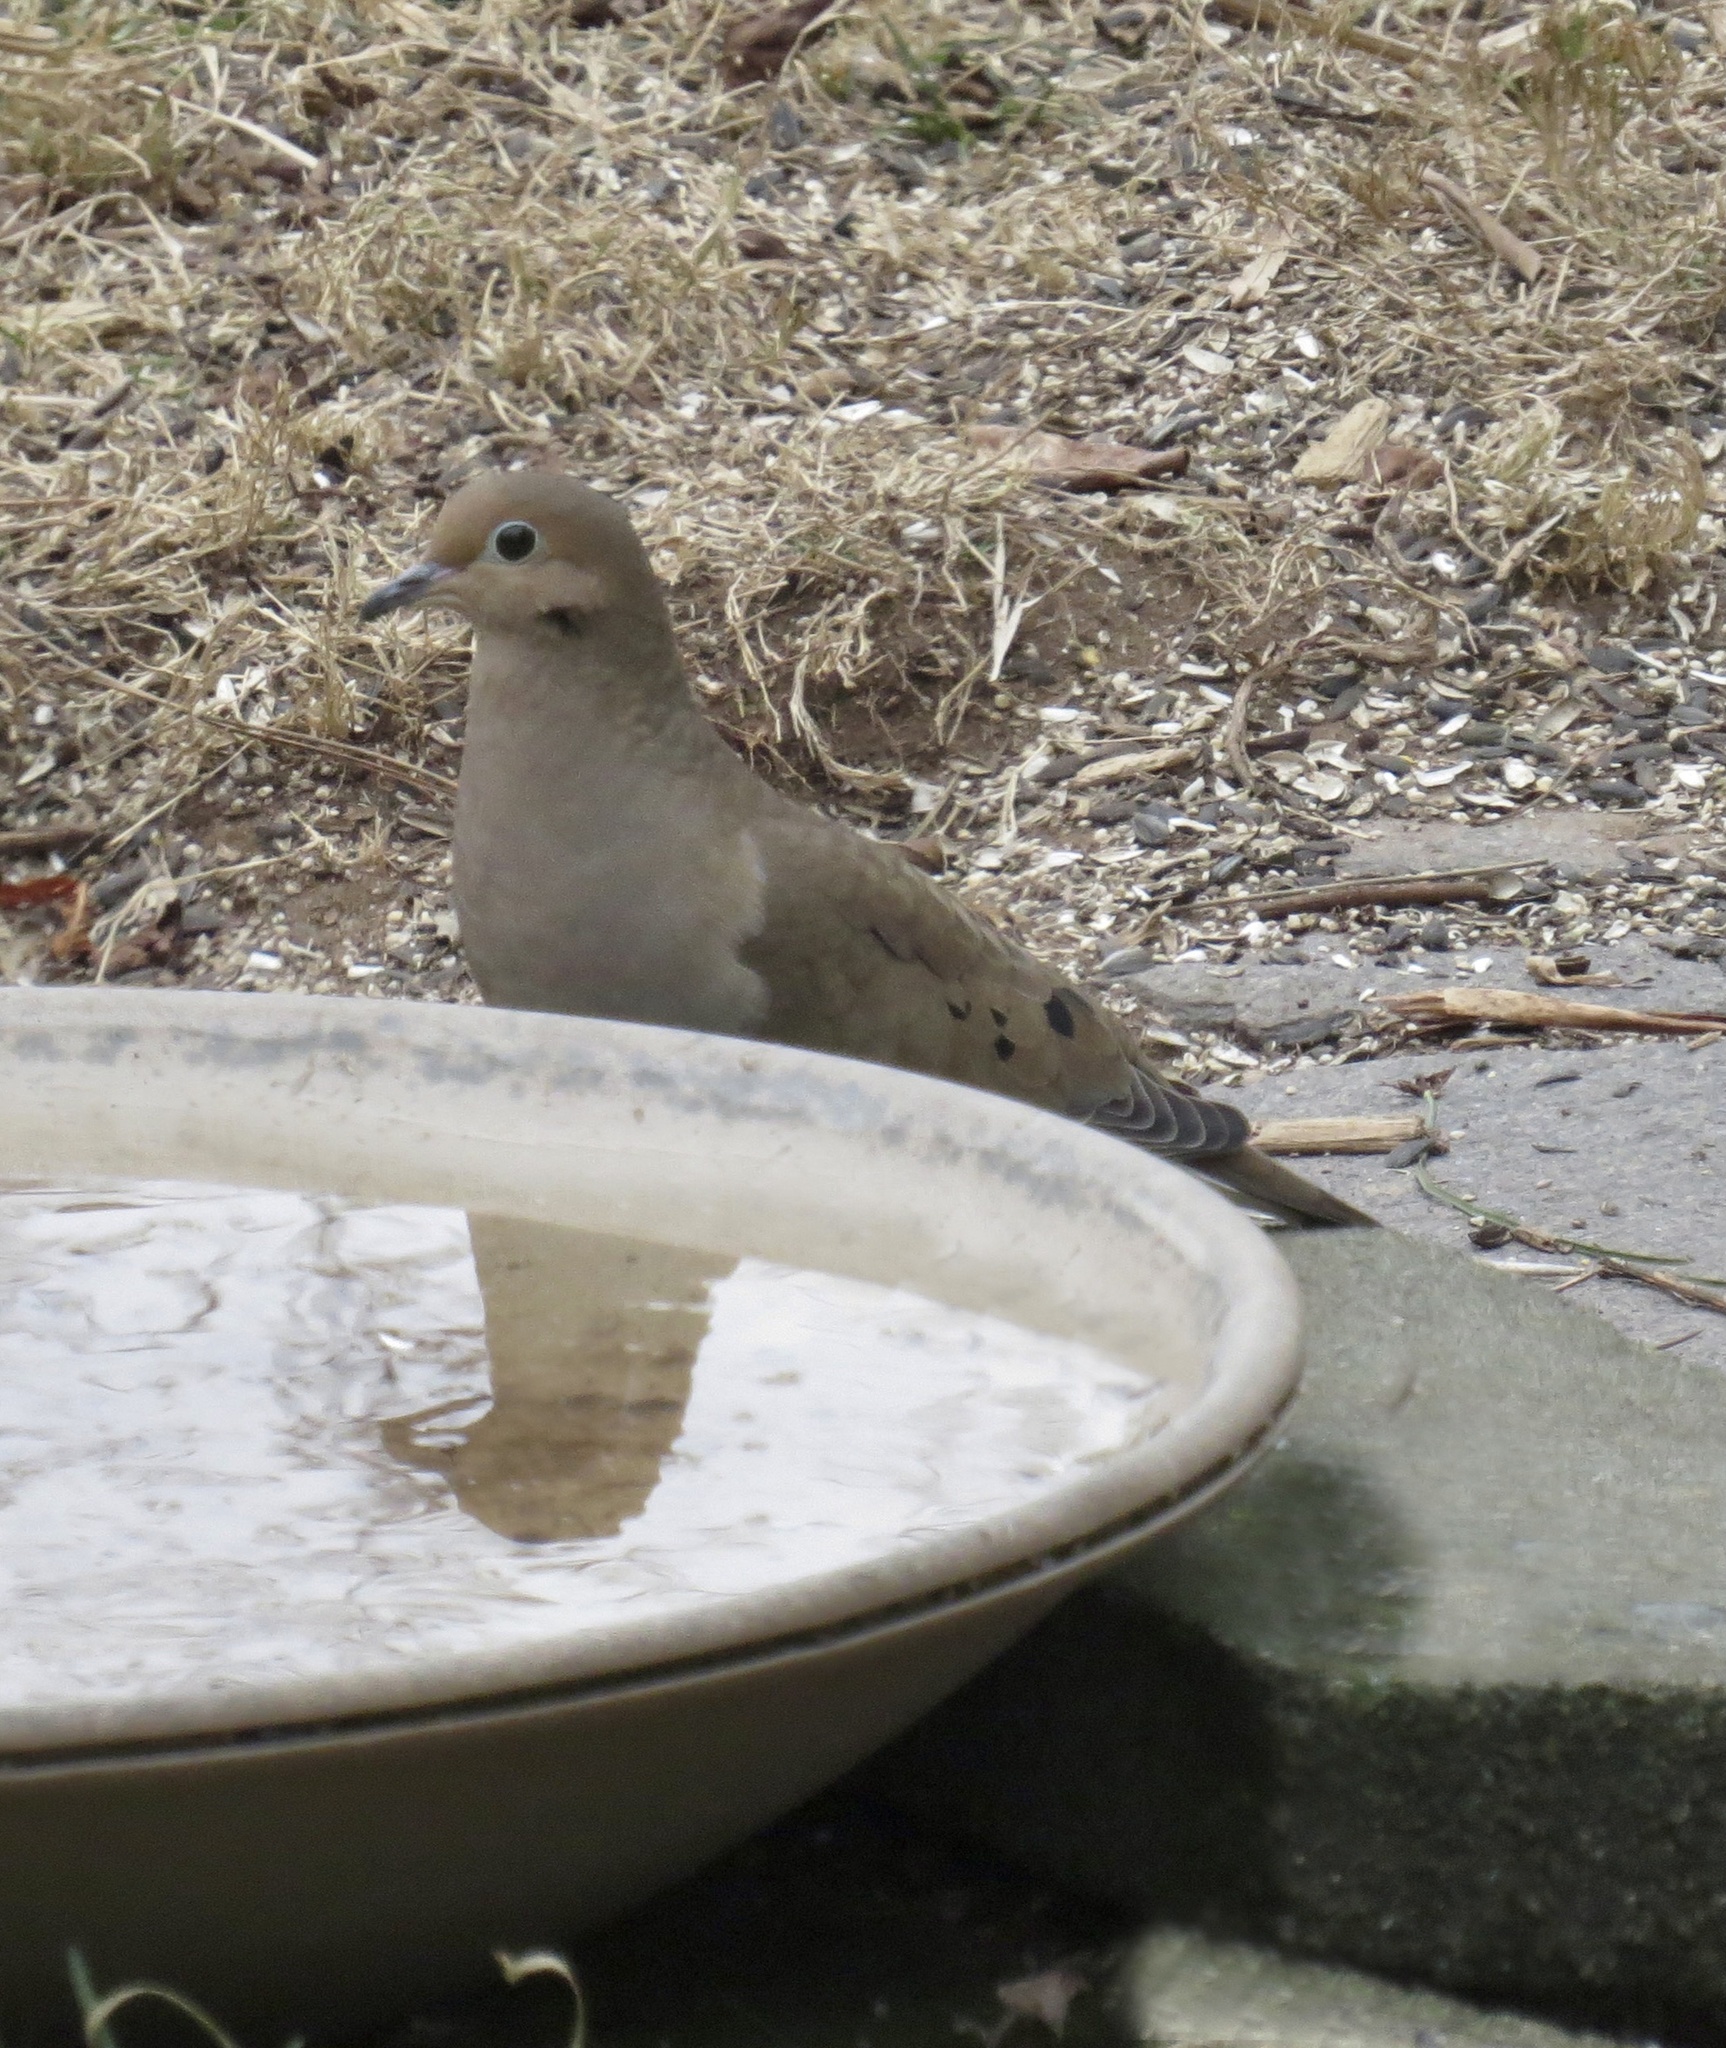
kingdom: Animalia
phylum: Chordata
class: Aves
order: Columbiformes
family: Columbidae
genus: Zenaida
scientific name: Zenaida macroura
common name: Mourning dove
